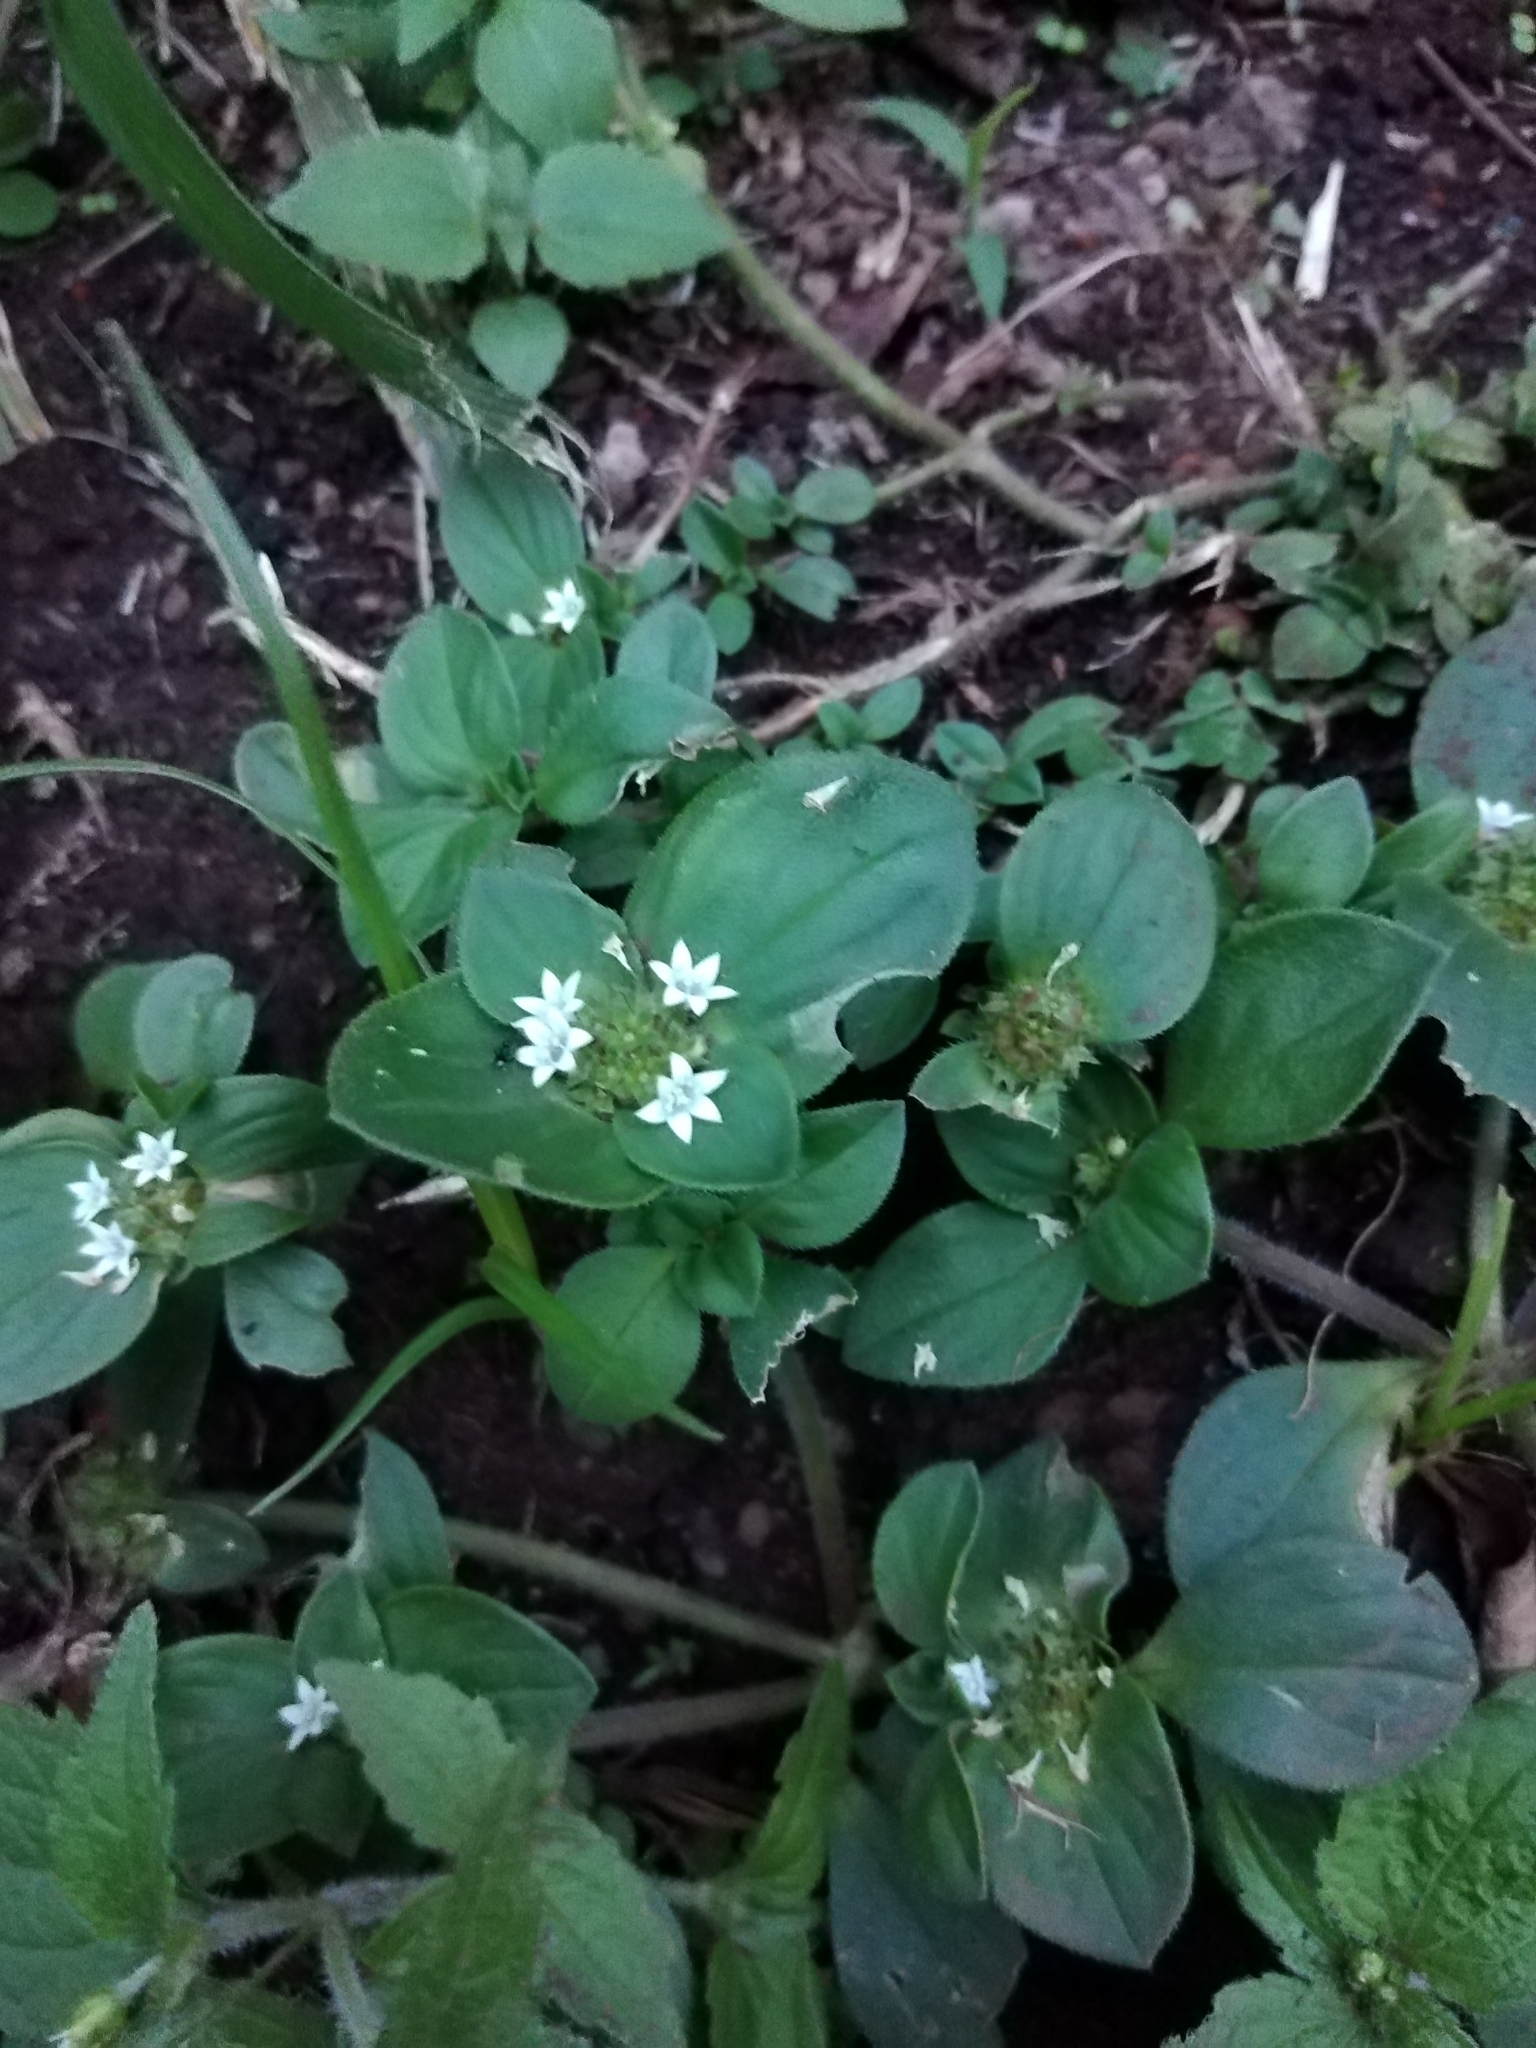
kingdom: Plantae
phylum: Tracheophyta
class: Magnoliopsida
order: Gentianales
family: Rubiaceae
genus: Richardia
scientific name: Richardia brasiliensis
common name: Tropical mexican clover
